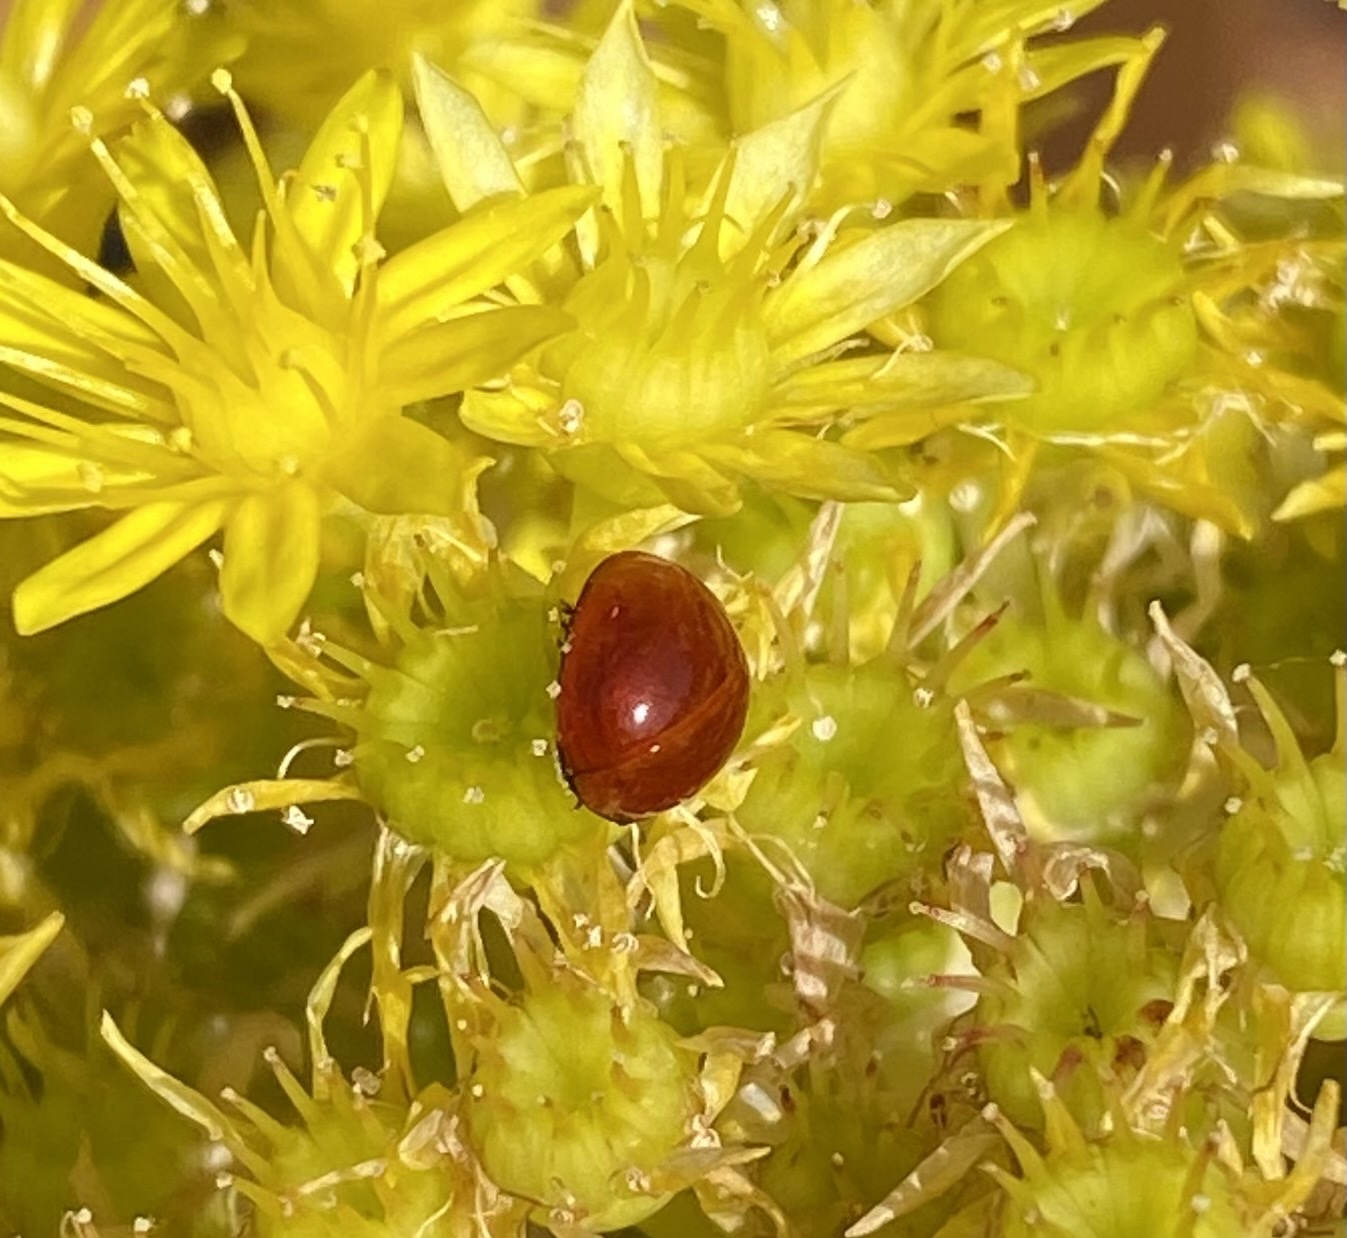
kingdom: Animalia
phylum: Arthropoda
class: Insecta
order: Coleoptera
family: Coccinellidae
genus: Cycloneda
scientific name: Cycloneda
